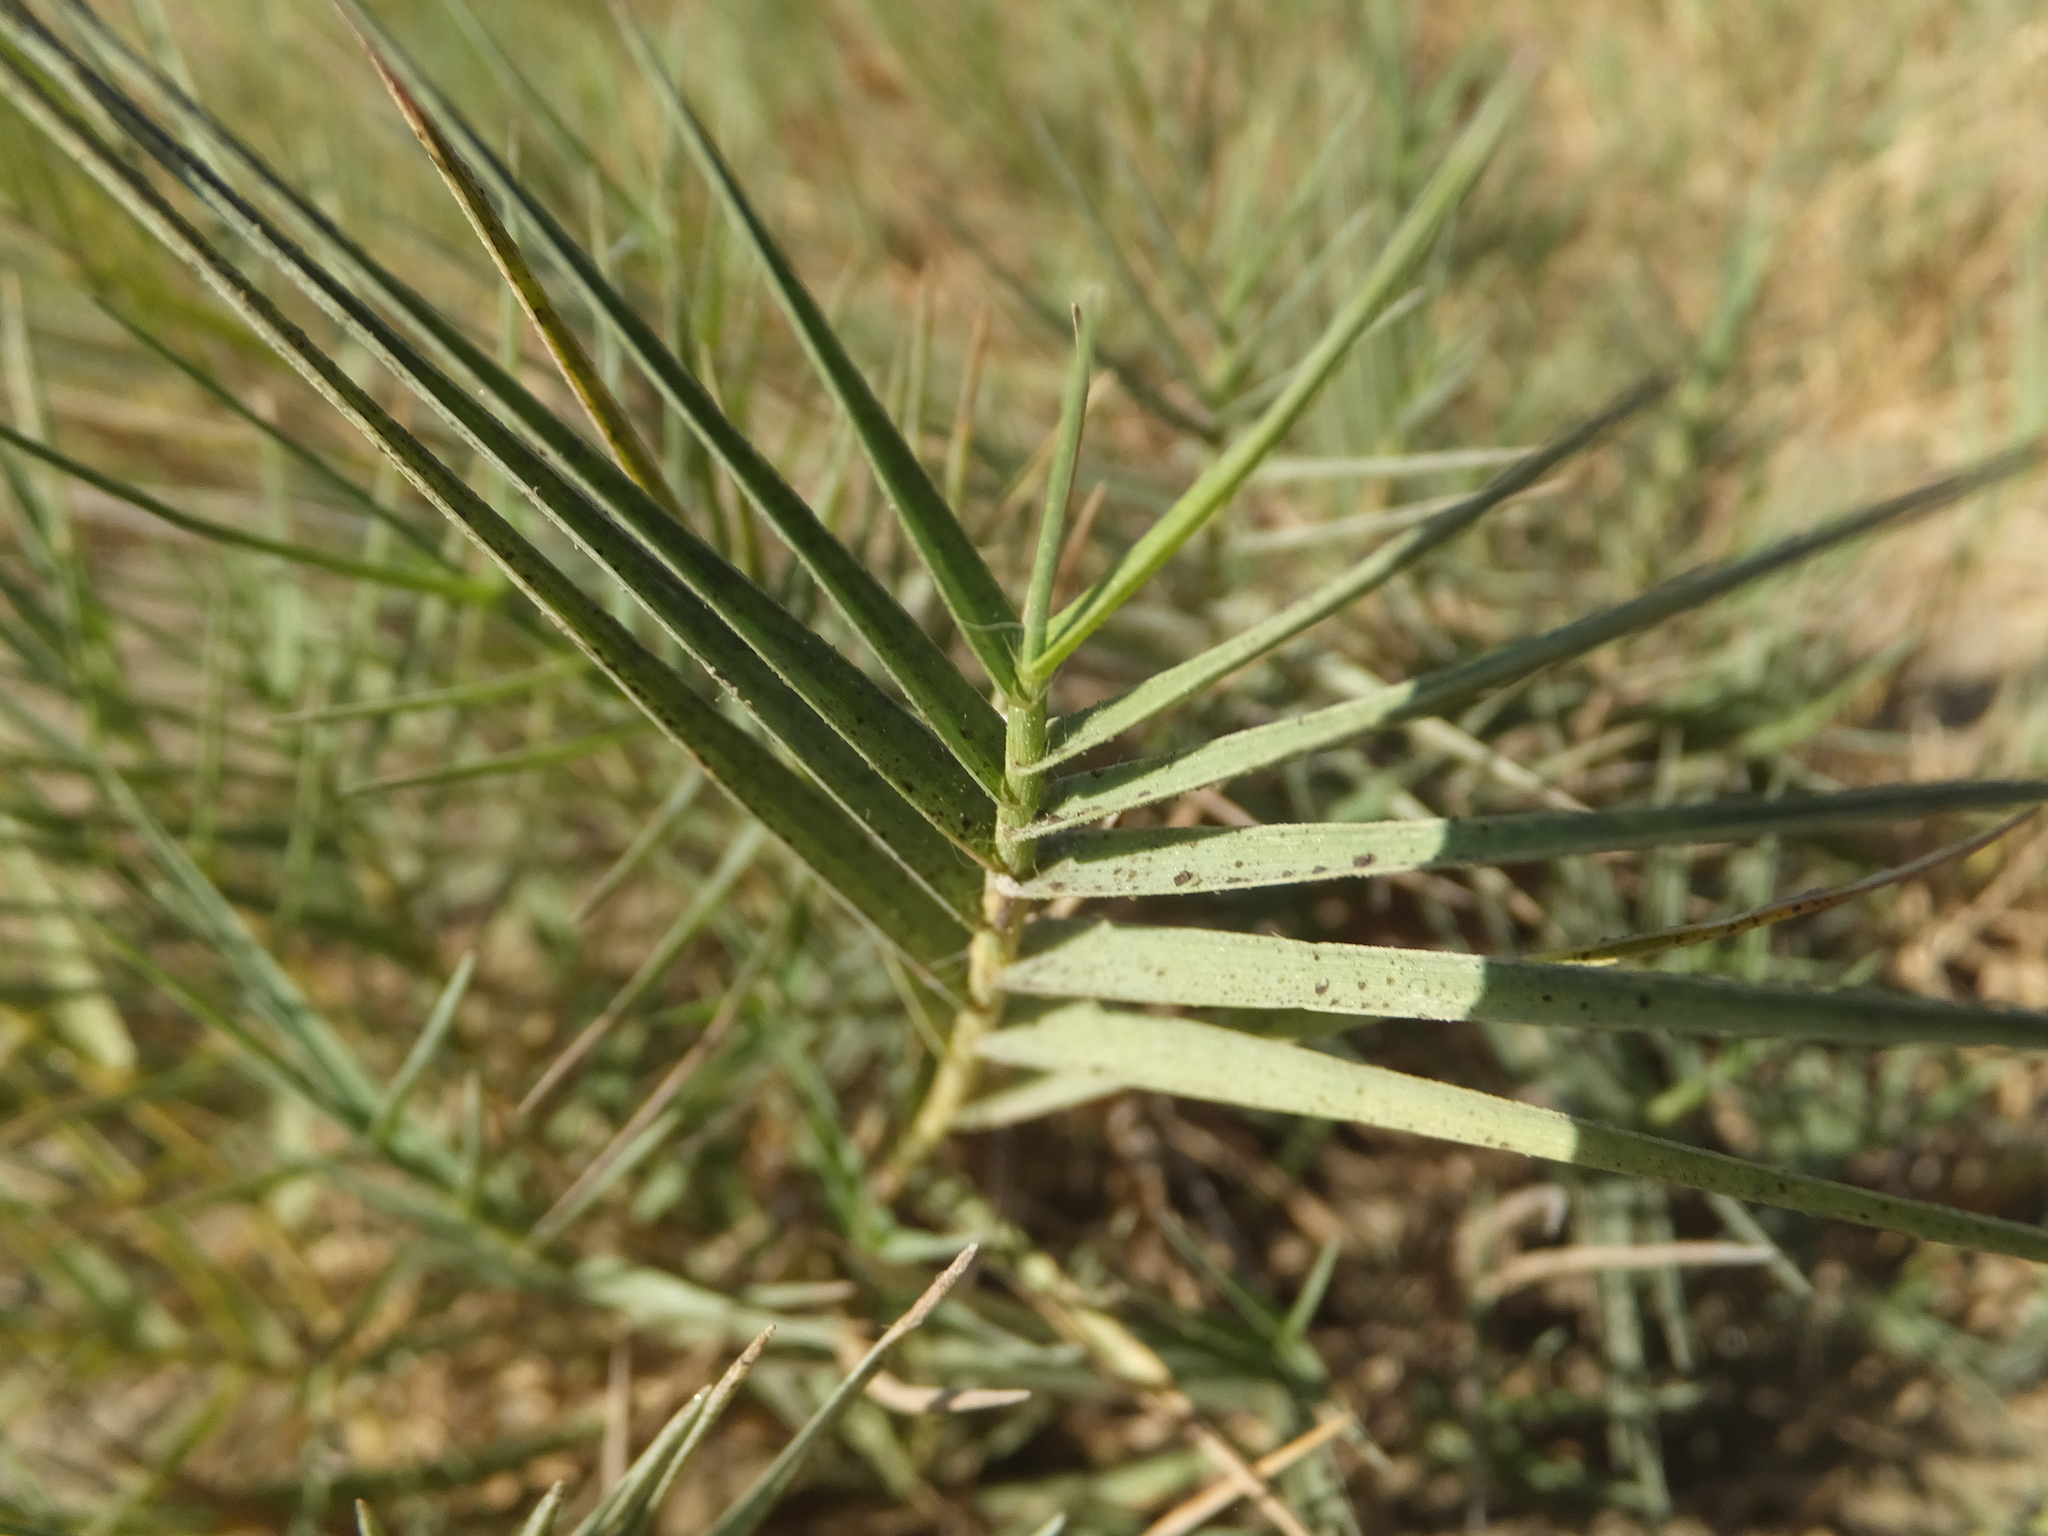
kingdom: Plantae
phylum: Tracheophyta
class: Liliopsida
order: Poales
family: Poaceae
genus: Distichlis
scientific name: Distichlis spicata
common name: Saltgrass
